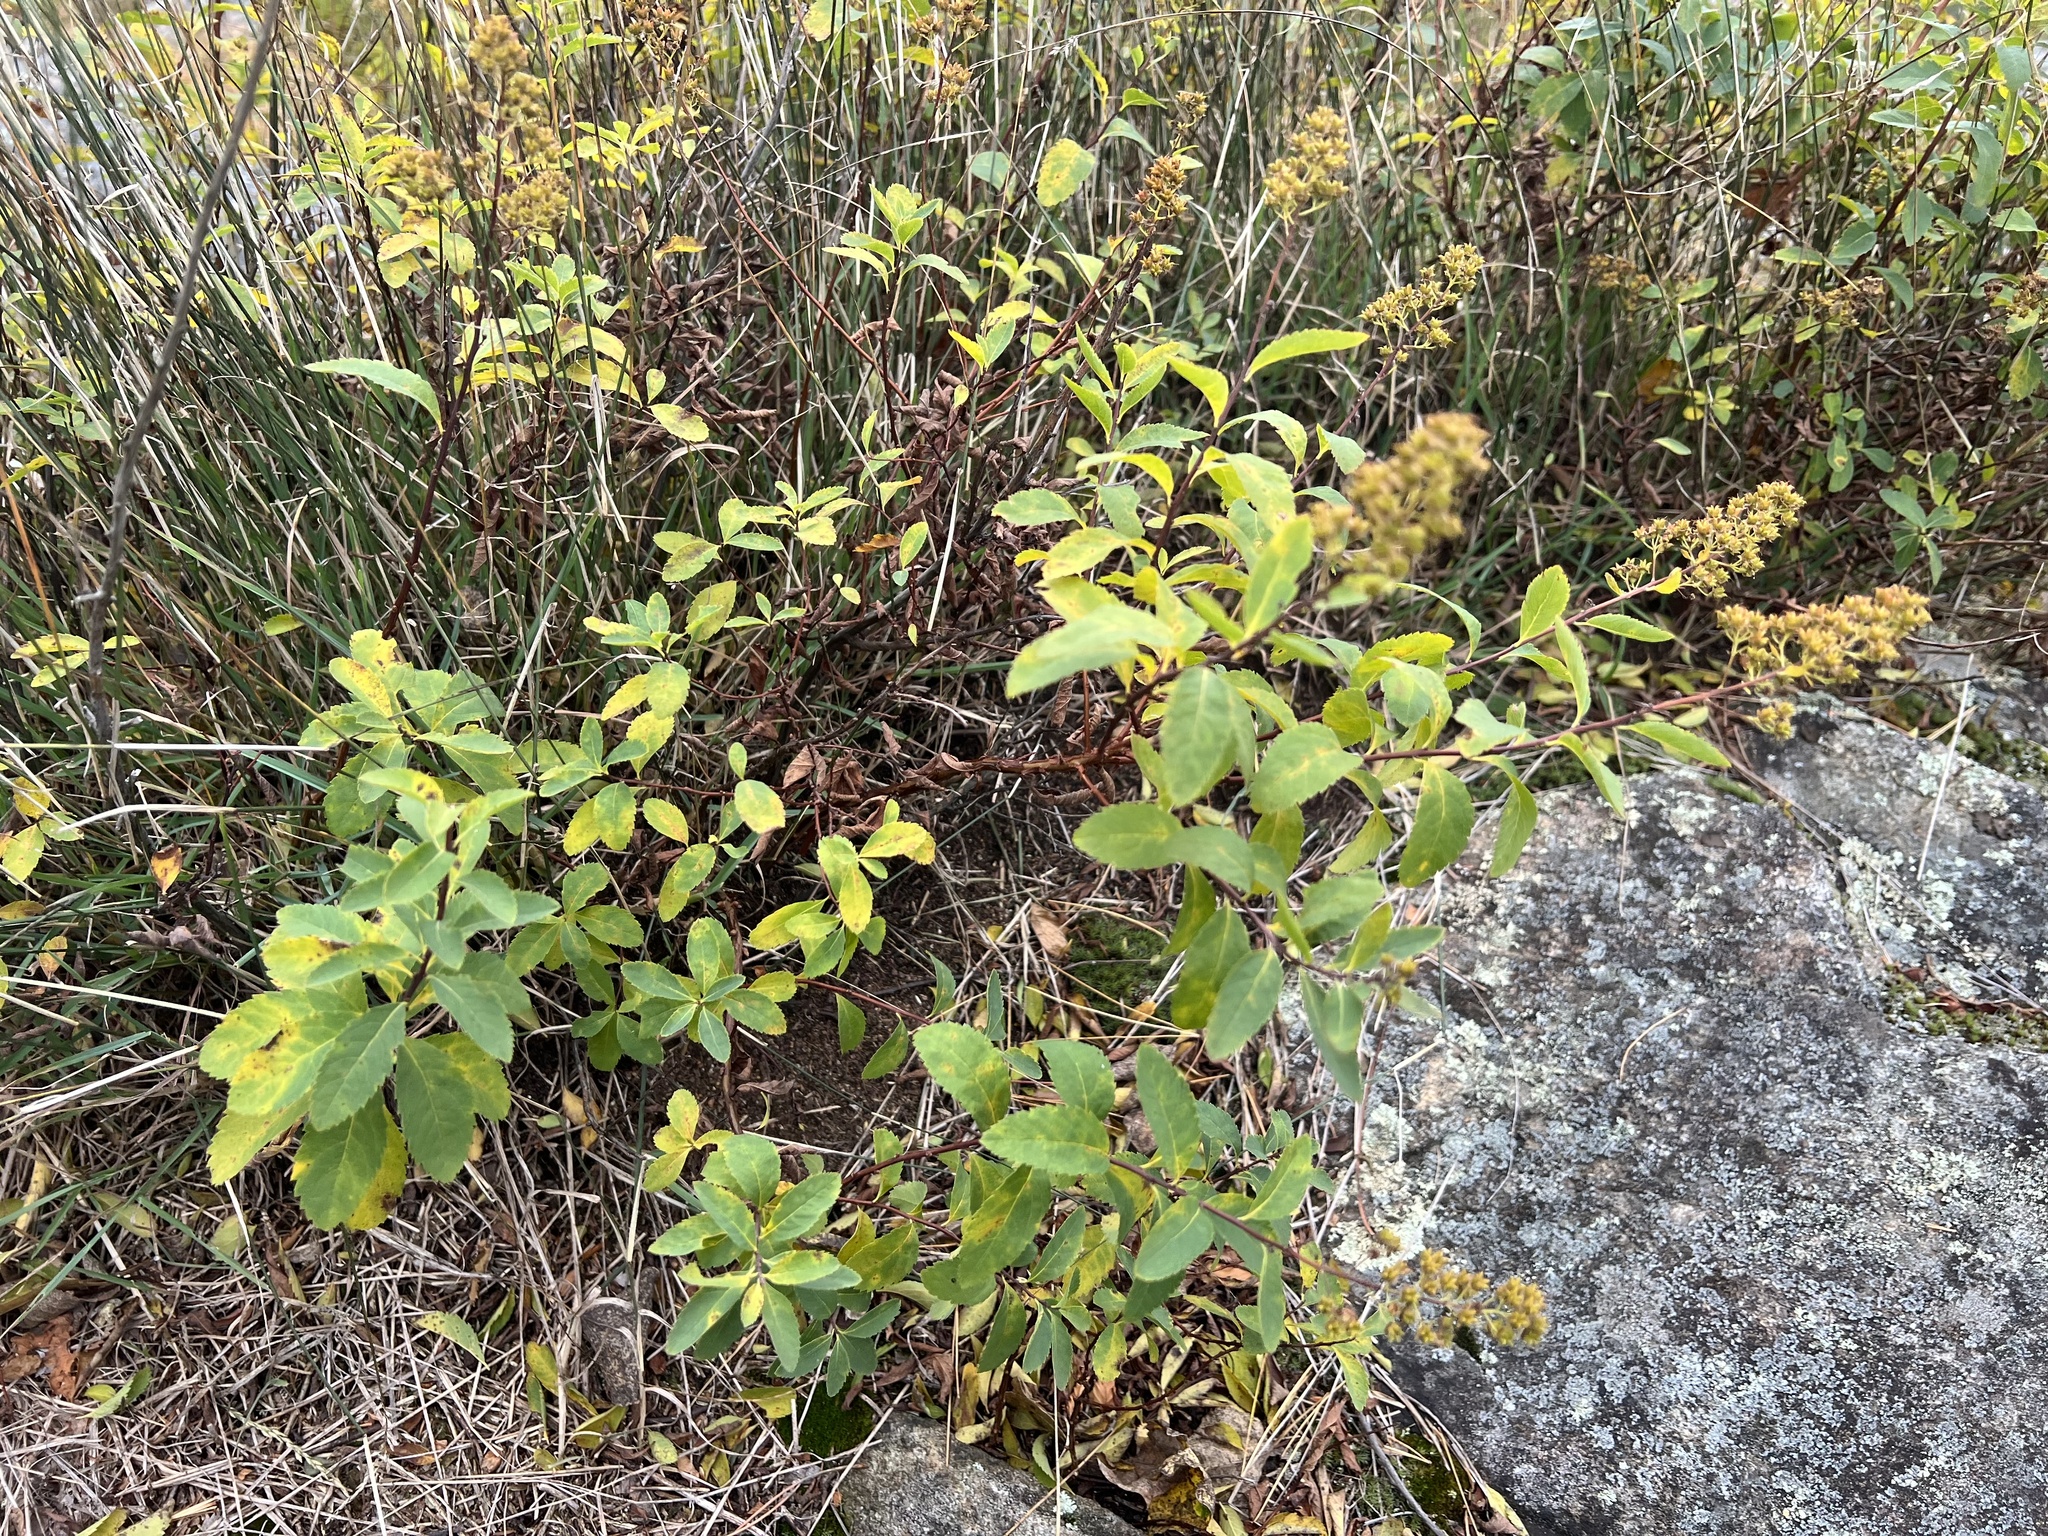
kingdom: Plantae
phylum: Tracheophyta
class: Magnoliopsida
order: Rosales
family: Rosaceae
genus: Spiraea
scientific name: Spiraea alba
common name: Pale bridewort
